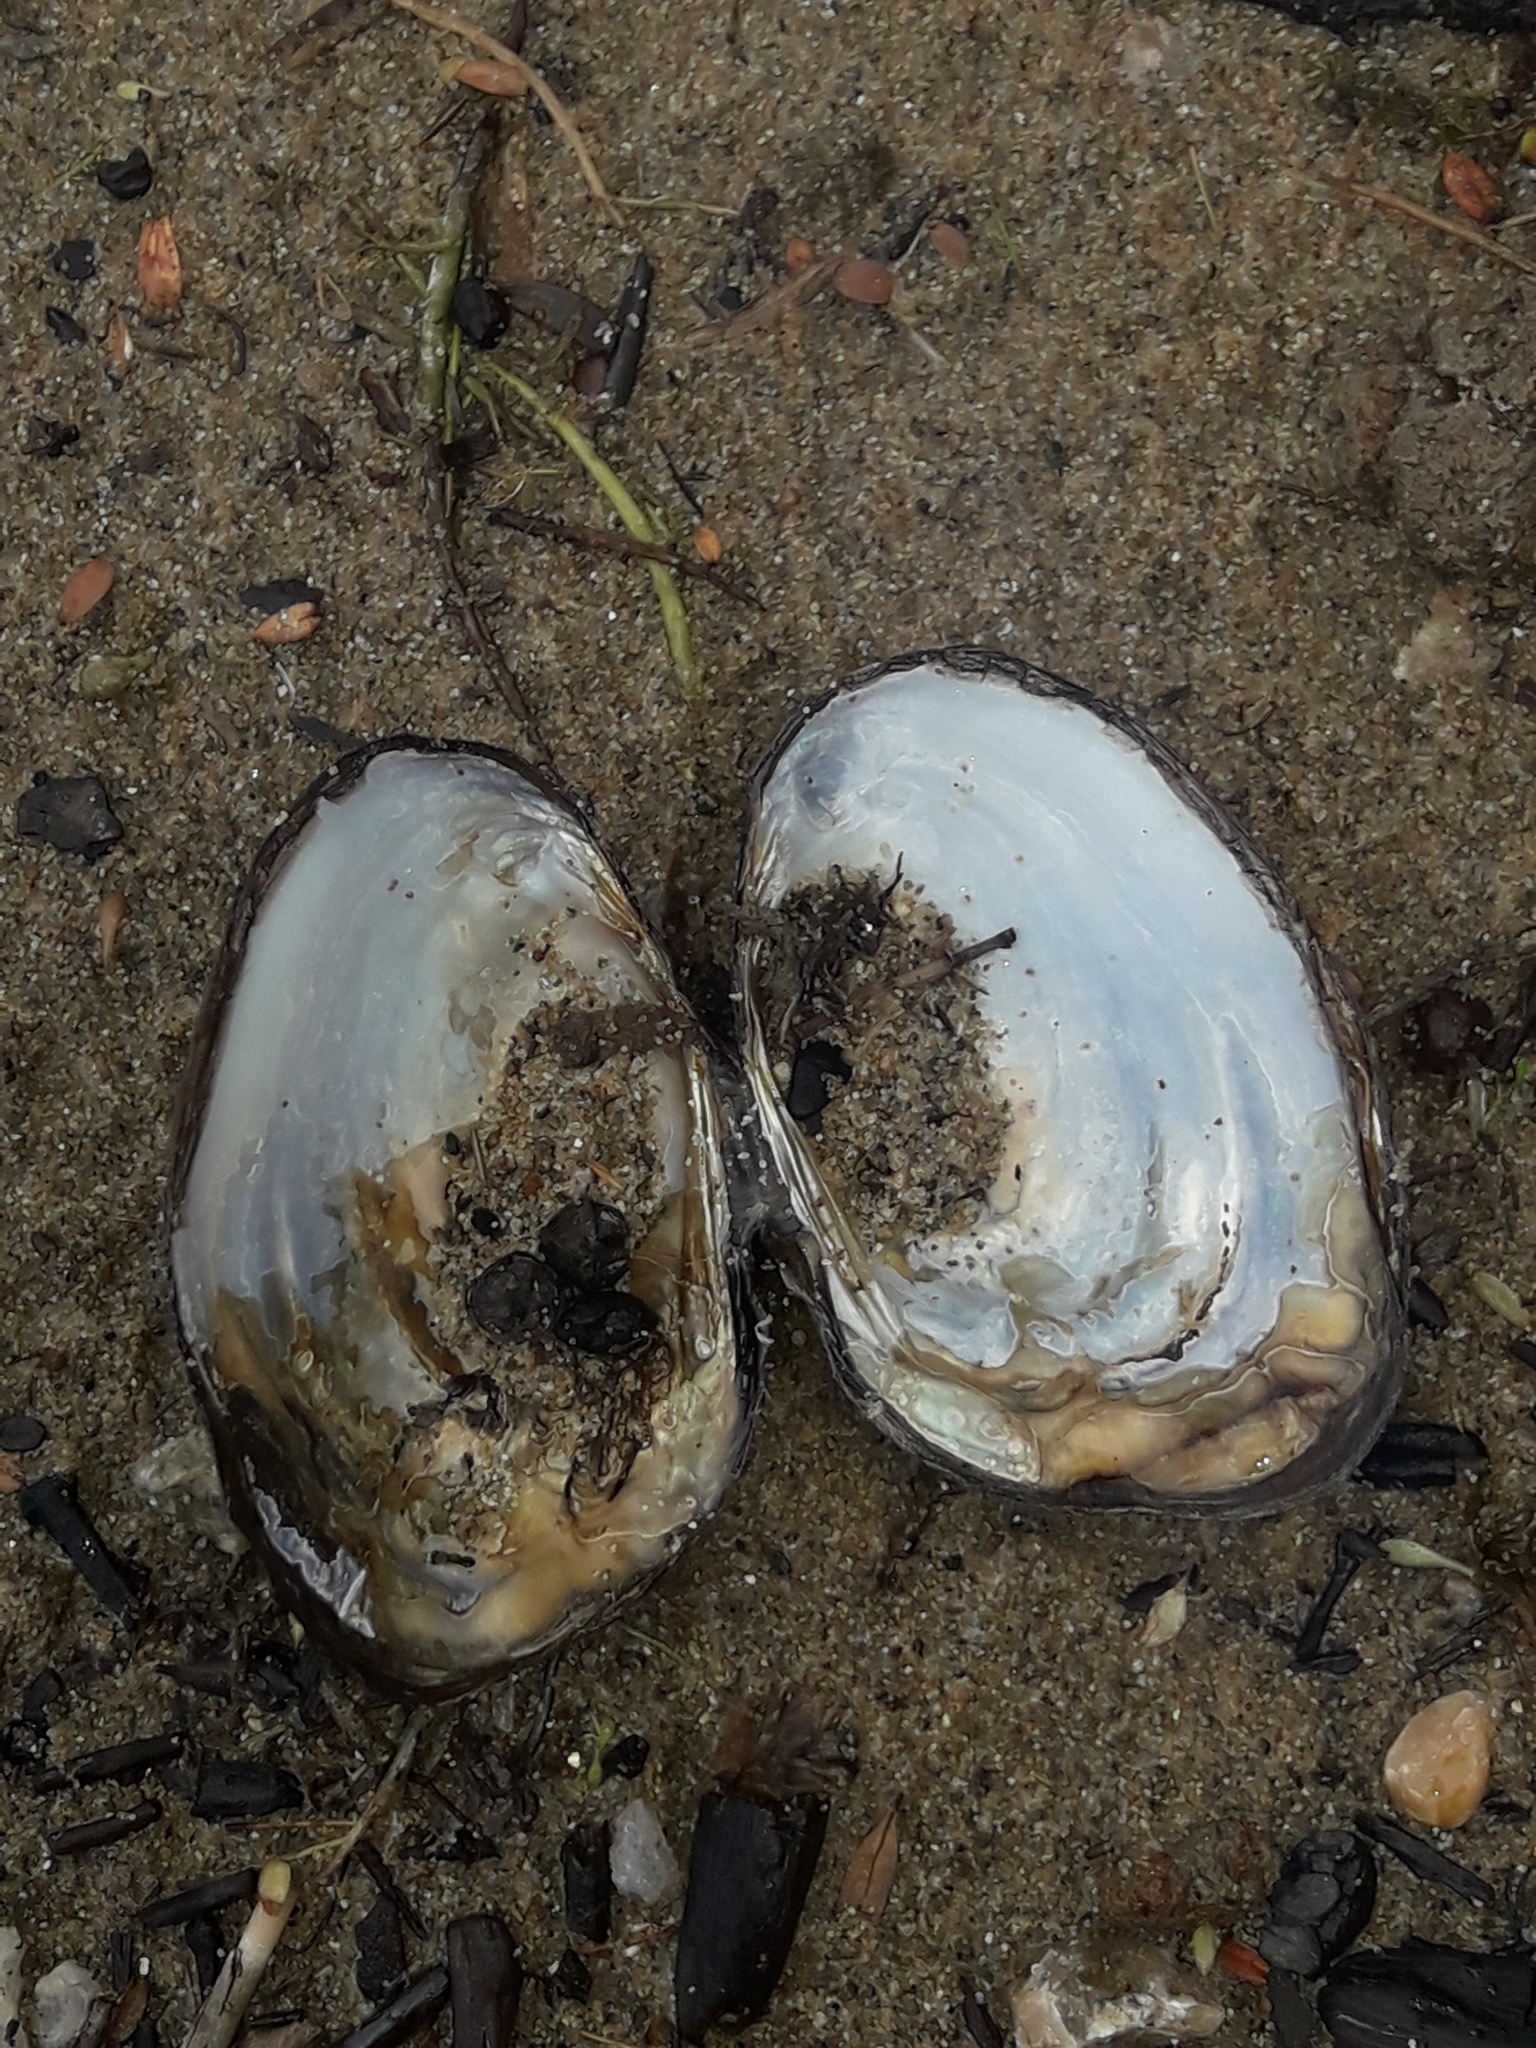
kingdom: Animalia
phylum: Mollusca
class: Bivalvia
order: Unionida
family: Hyriidae
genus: Echyridella
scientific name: Echyridella menziesii
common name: New zealand freshwater mussel
